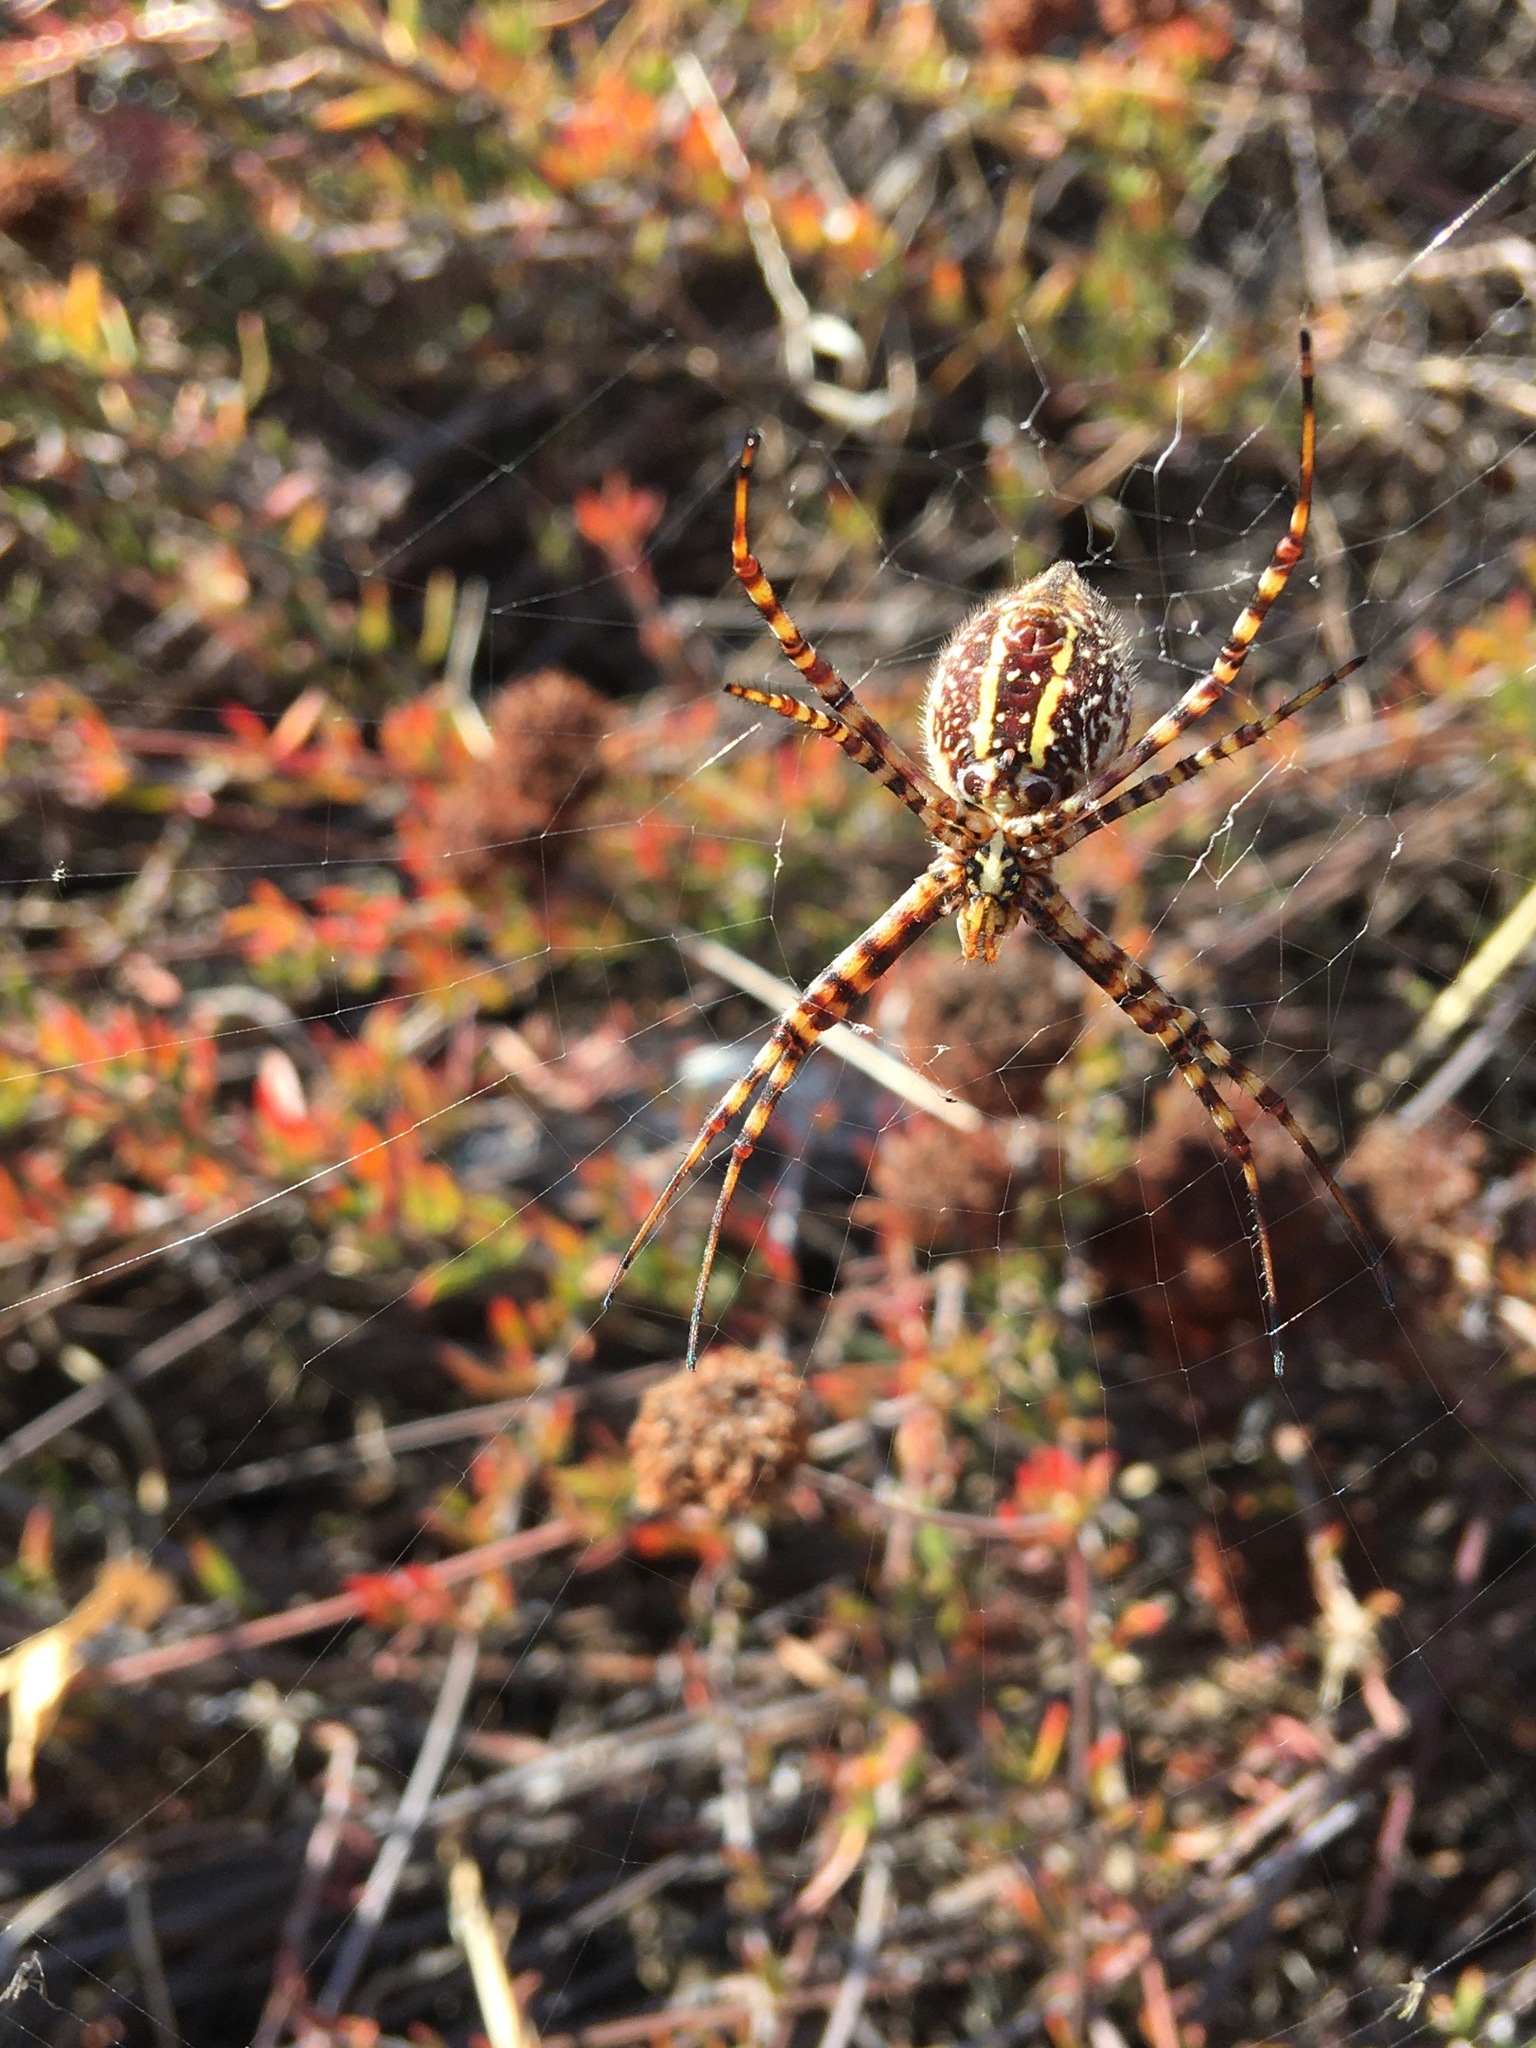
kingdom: Animalia
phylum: Arthropoda
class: Arachnida
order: Araneae
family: Araneidae
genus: Argiope
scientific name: Argiope trifasciata
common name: Banded garden spider
